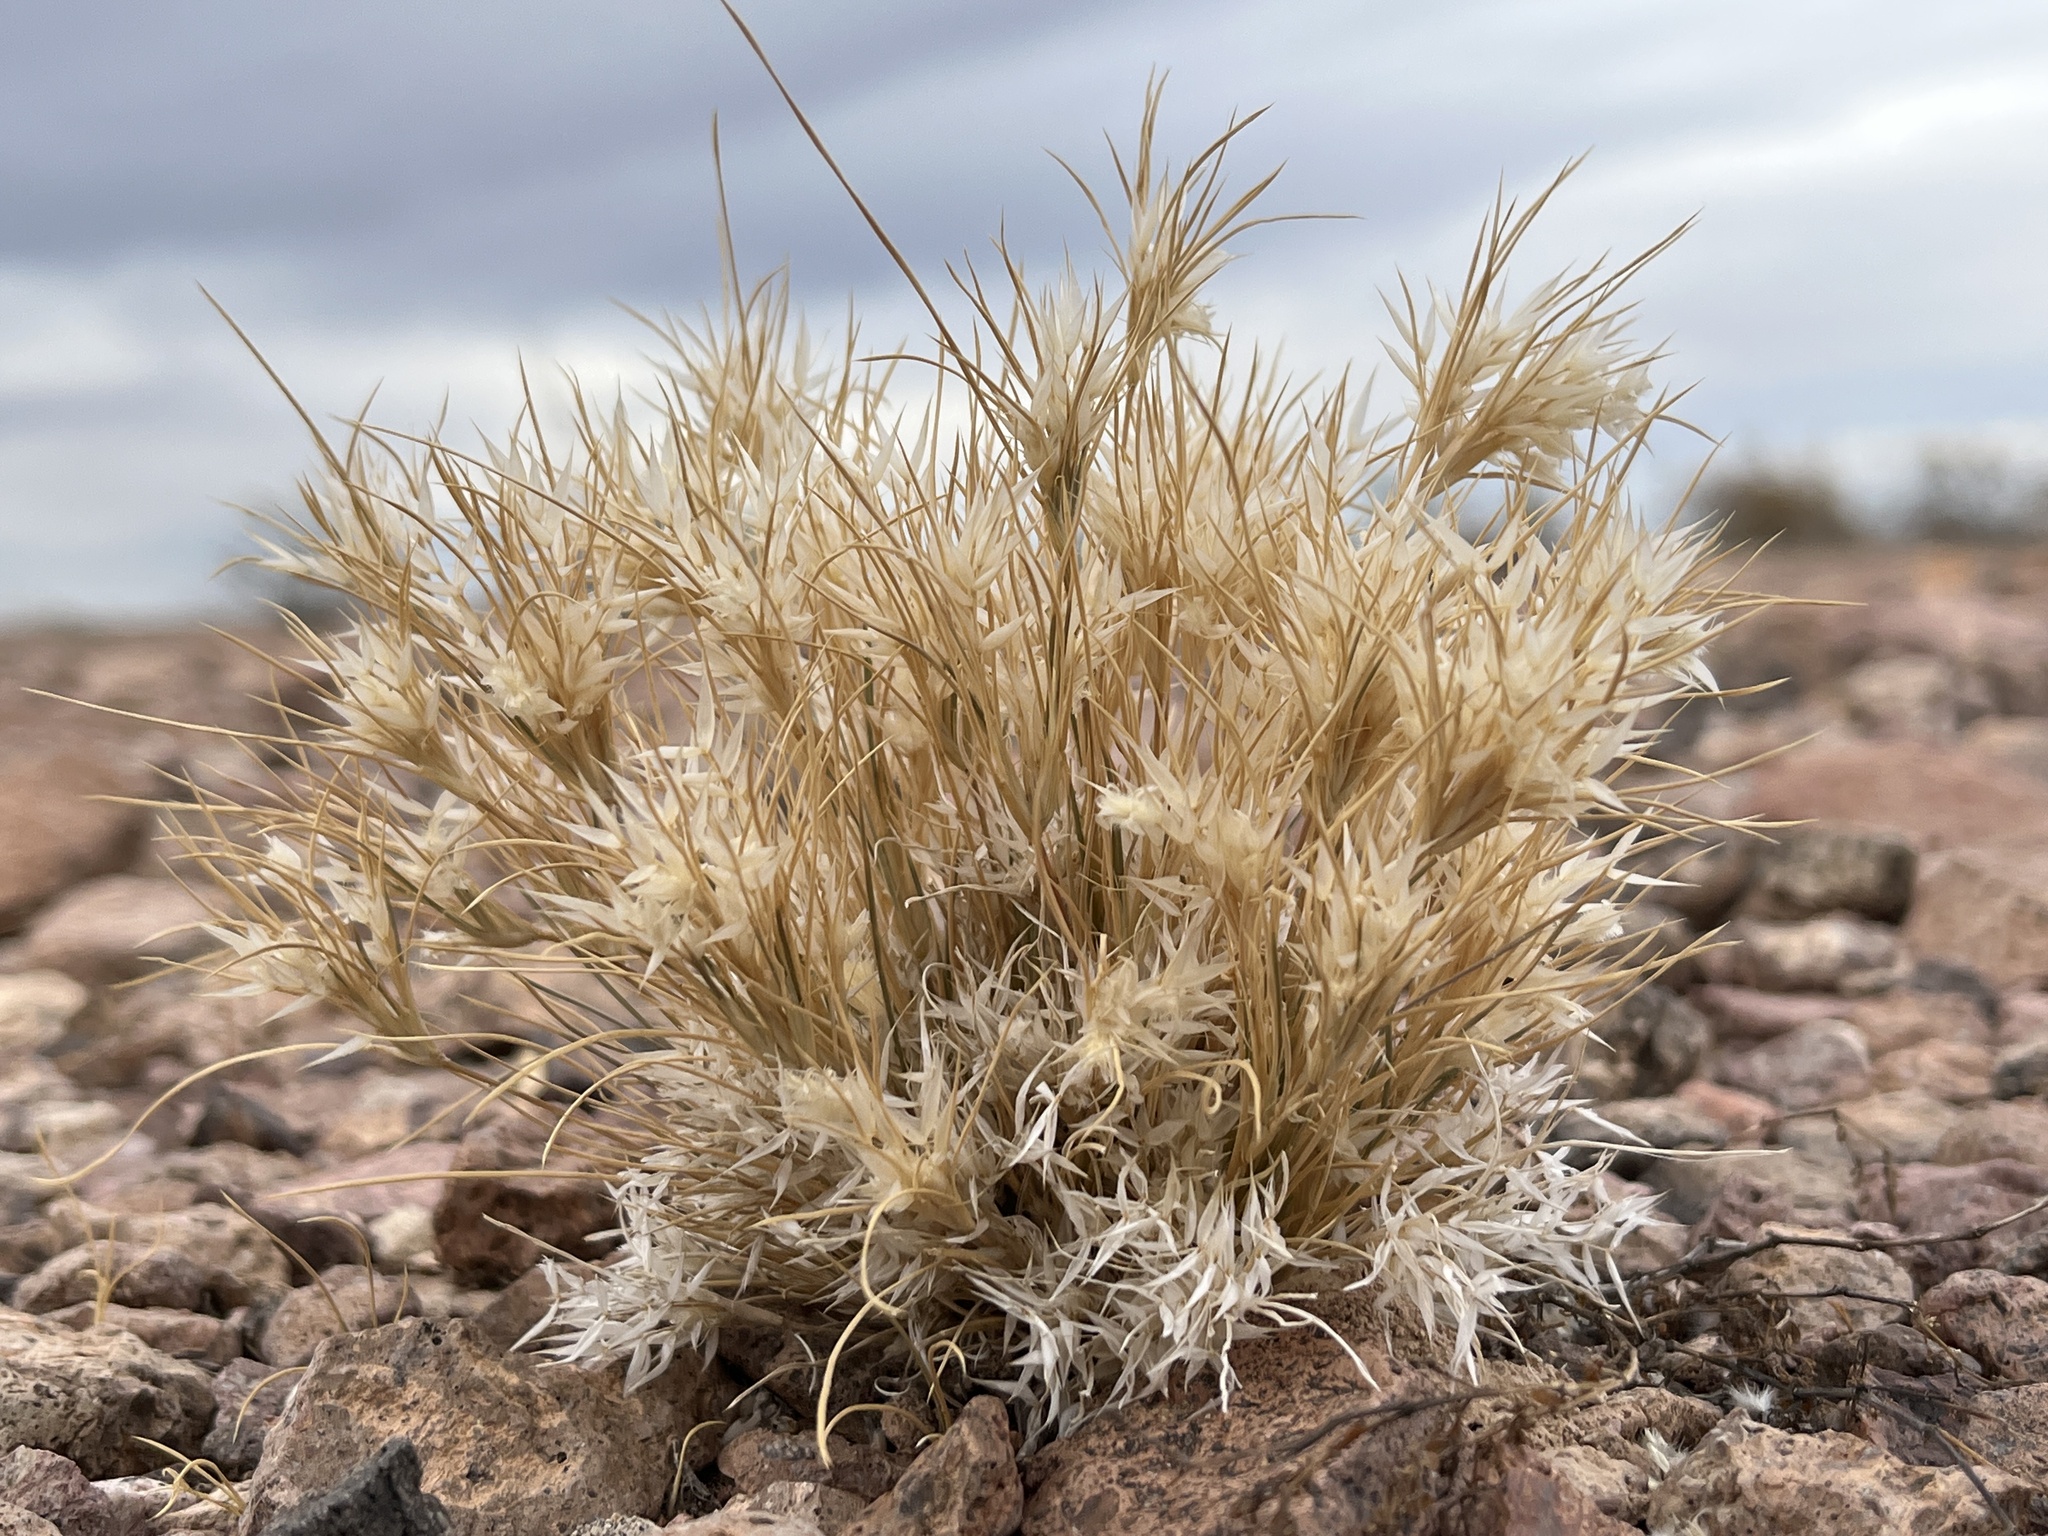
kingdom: Plantae
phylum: Tracheophyta
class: Liliopsida
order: Poales
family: Poaceae
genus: Dasyochloa
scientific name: Dasyochloa pulchella
